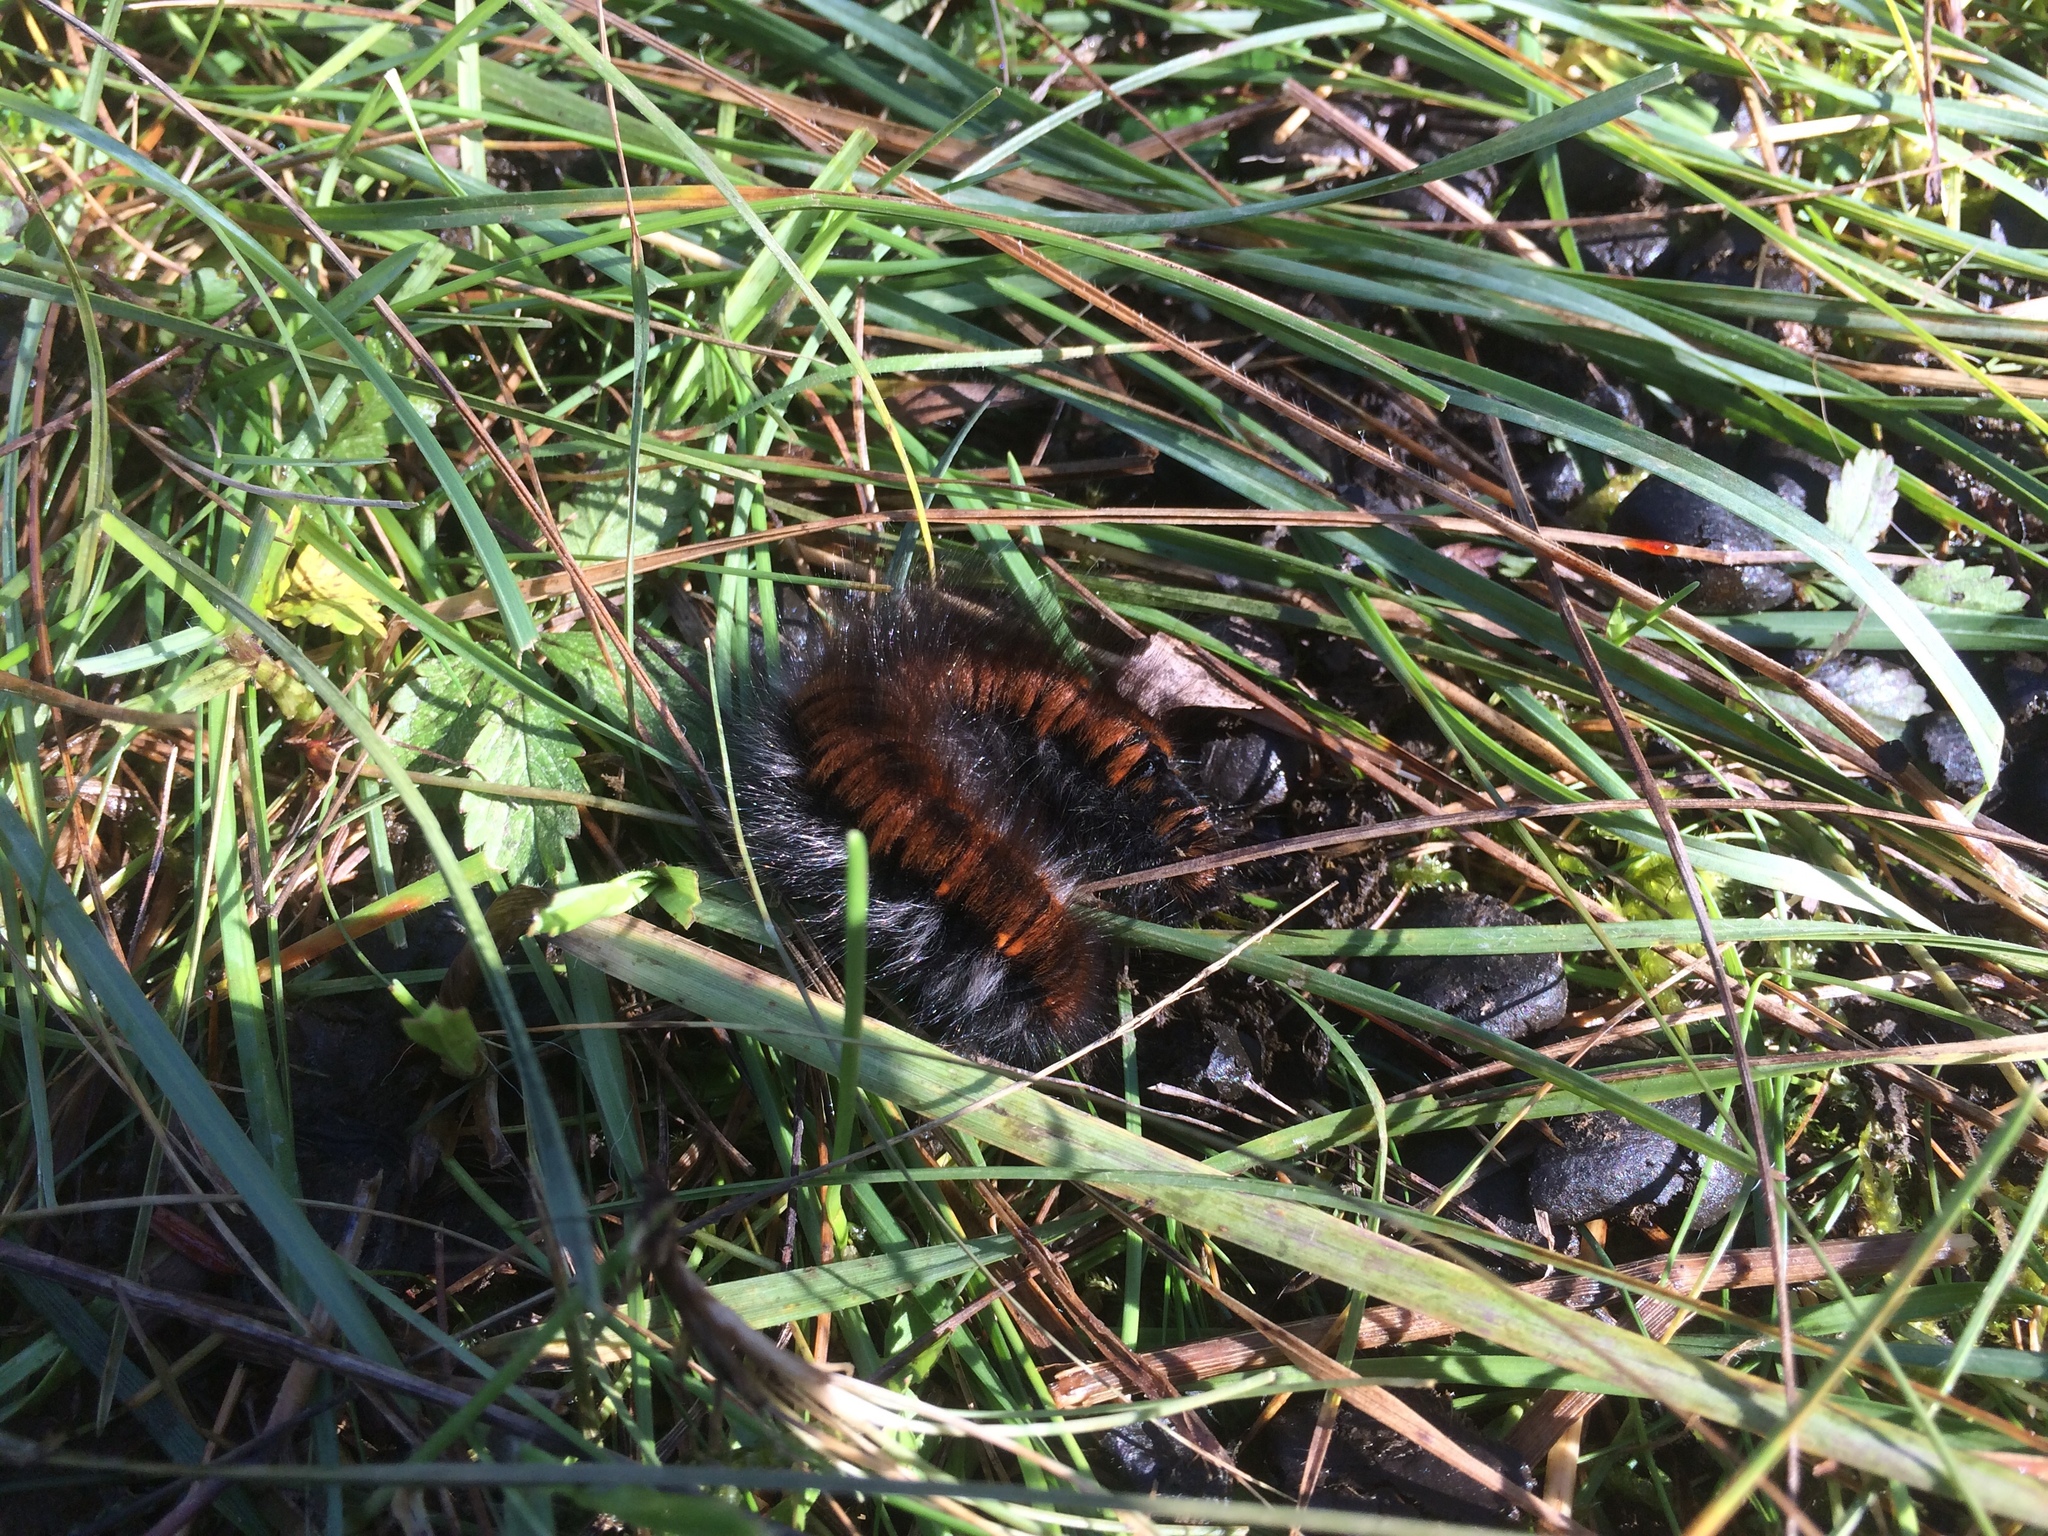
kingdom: Animalia
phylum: Arthropoda
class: Insecta
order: Lepidoptera
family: Lasiocampidae
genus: Macrothylacia
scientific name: Macrothylacia rubi
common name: Fox moth
